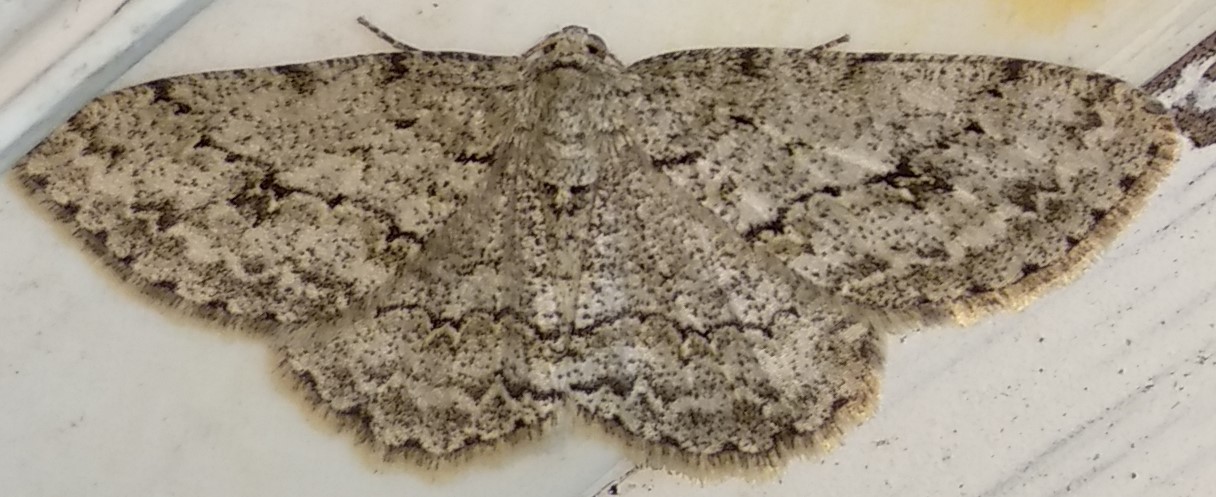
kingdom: Animalia
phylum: Arthropoda
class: Insecta
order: Lepidoptera
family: Geometridae
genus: Ectropis
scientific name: Ectropis crepuscularia
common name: Engrailed
